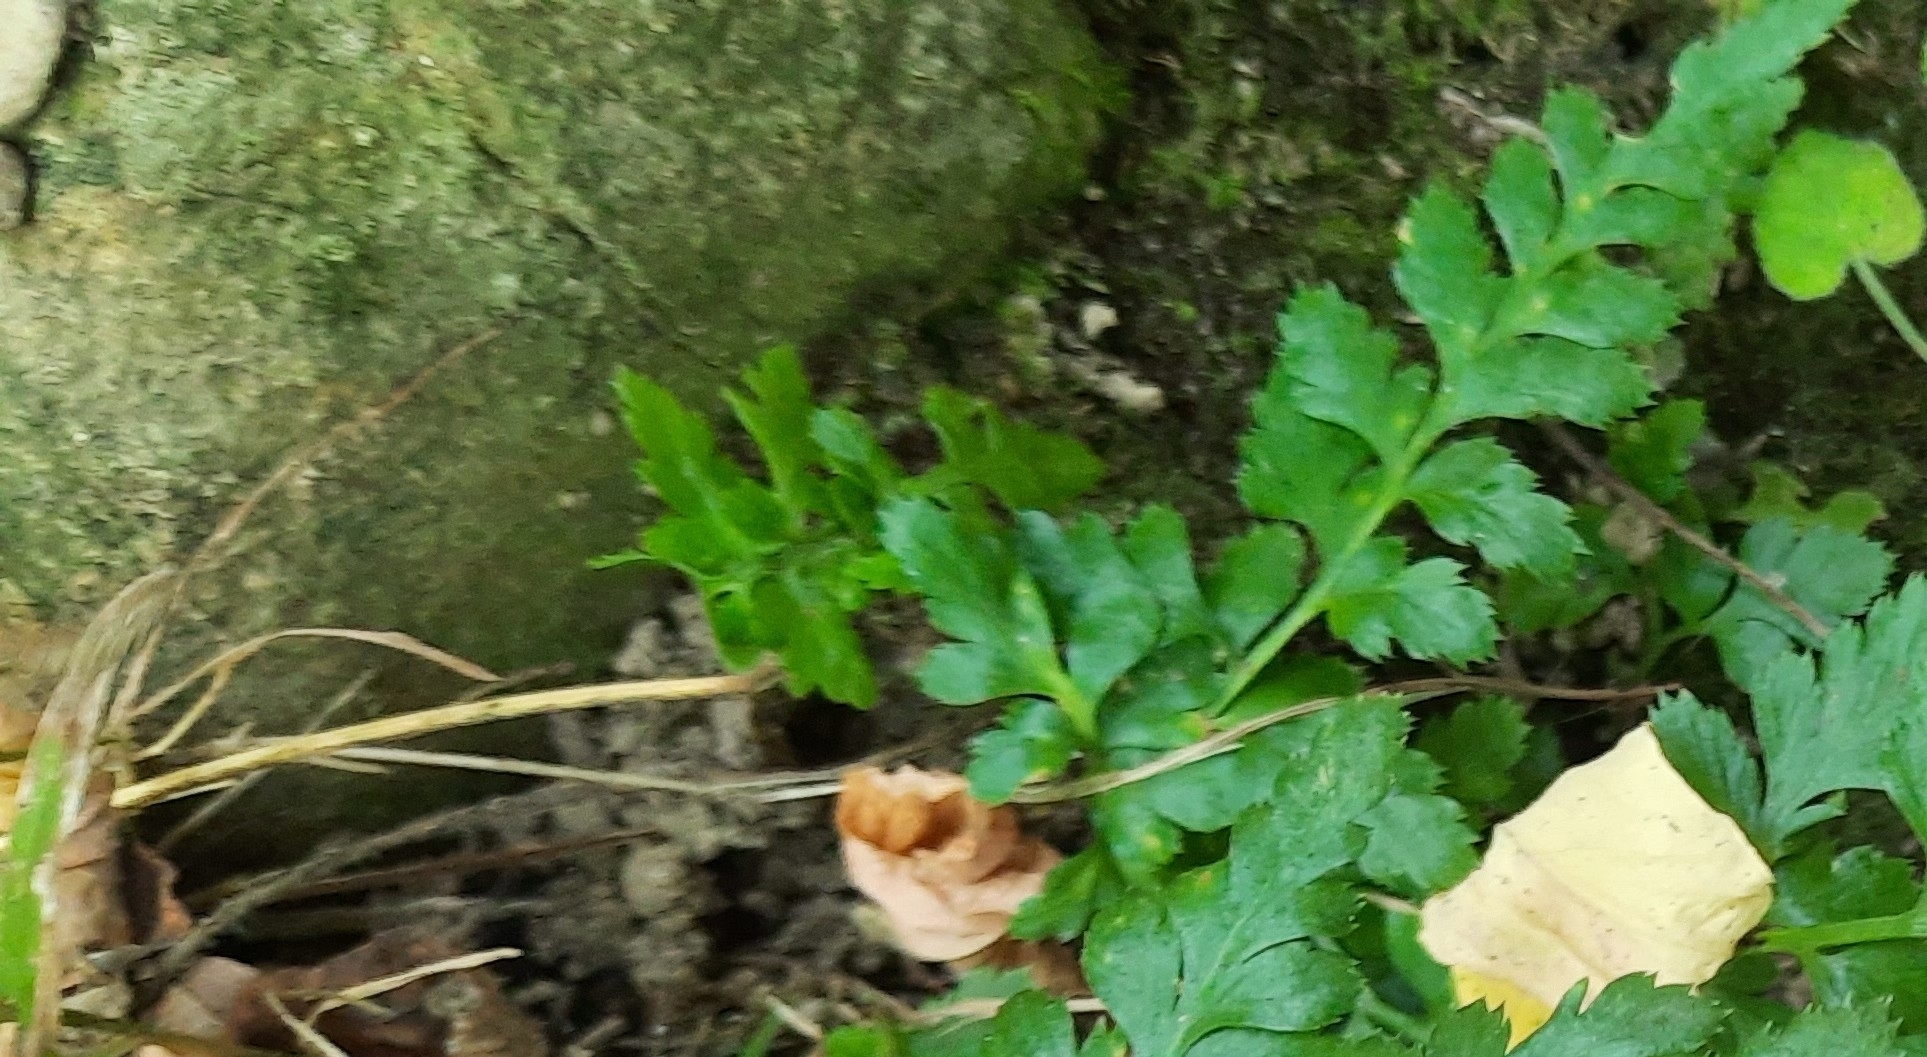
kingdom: Plantae
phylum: Tracheophyta
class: Polypodiopsida
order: Polypodiales
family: Aspleniaceae
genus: Asplenium
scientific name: Asplenium adiantum-nigrum
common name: Black spleenwort
